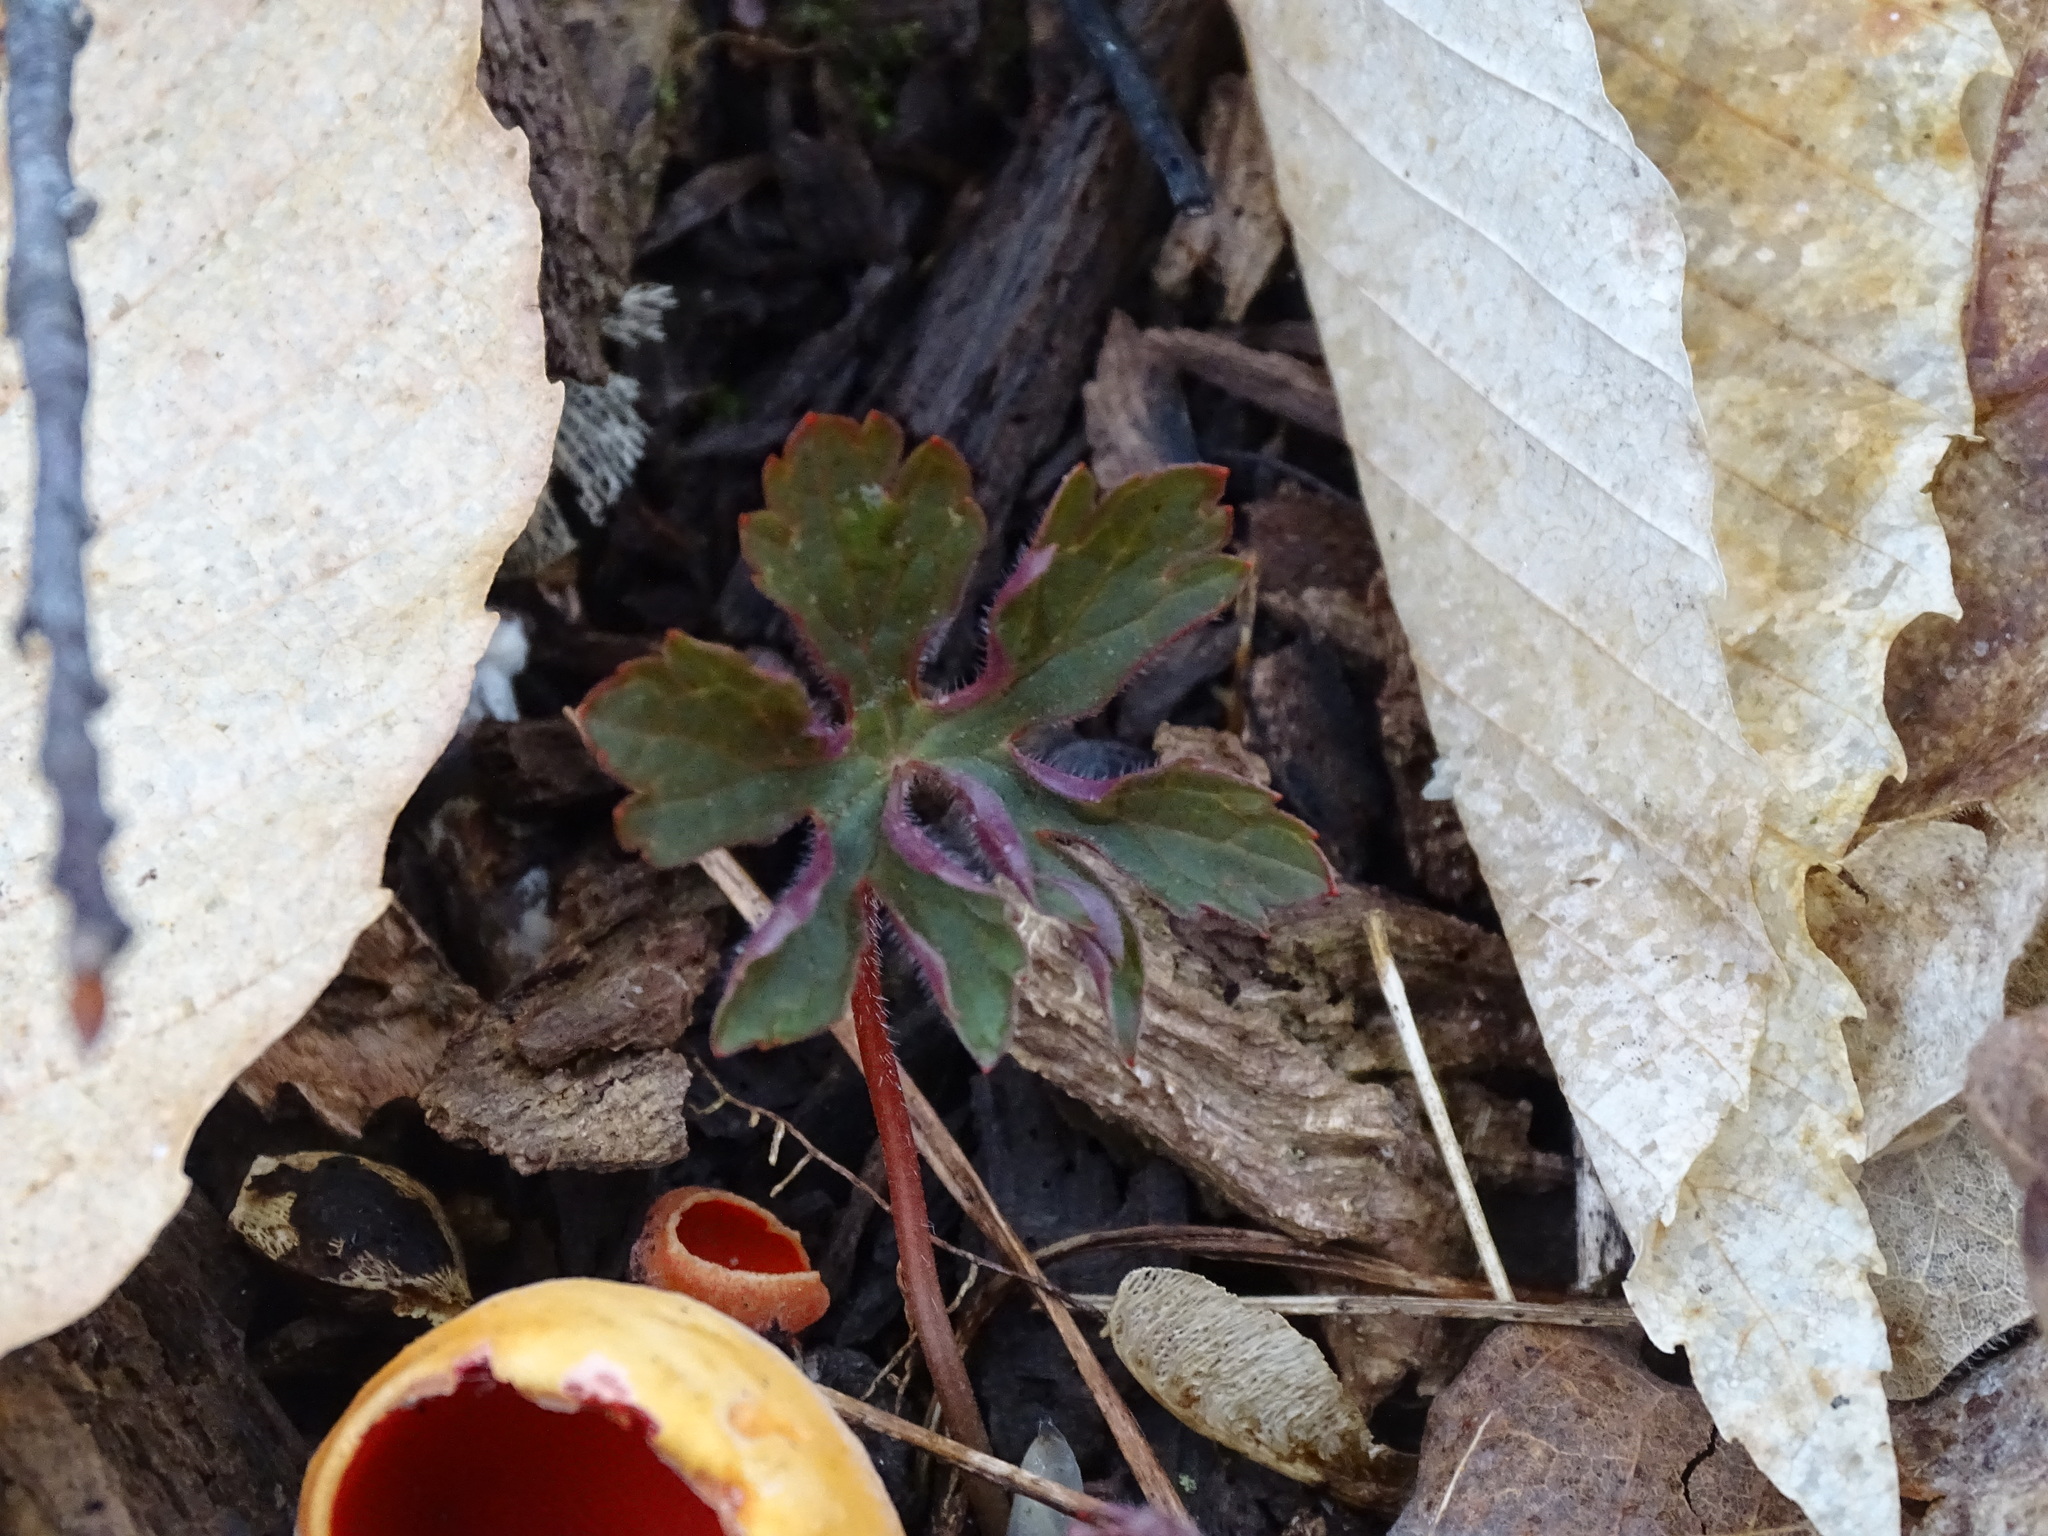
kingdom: Plantae
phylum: Tracheophyta
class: Magnoliopsida
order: Geraniales
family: Geraniaceae
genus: Geranium
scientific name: Geranium maculatum
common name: Spotted geranium
